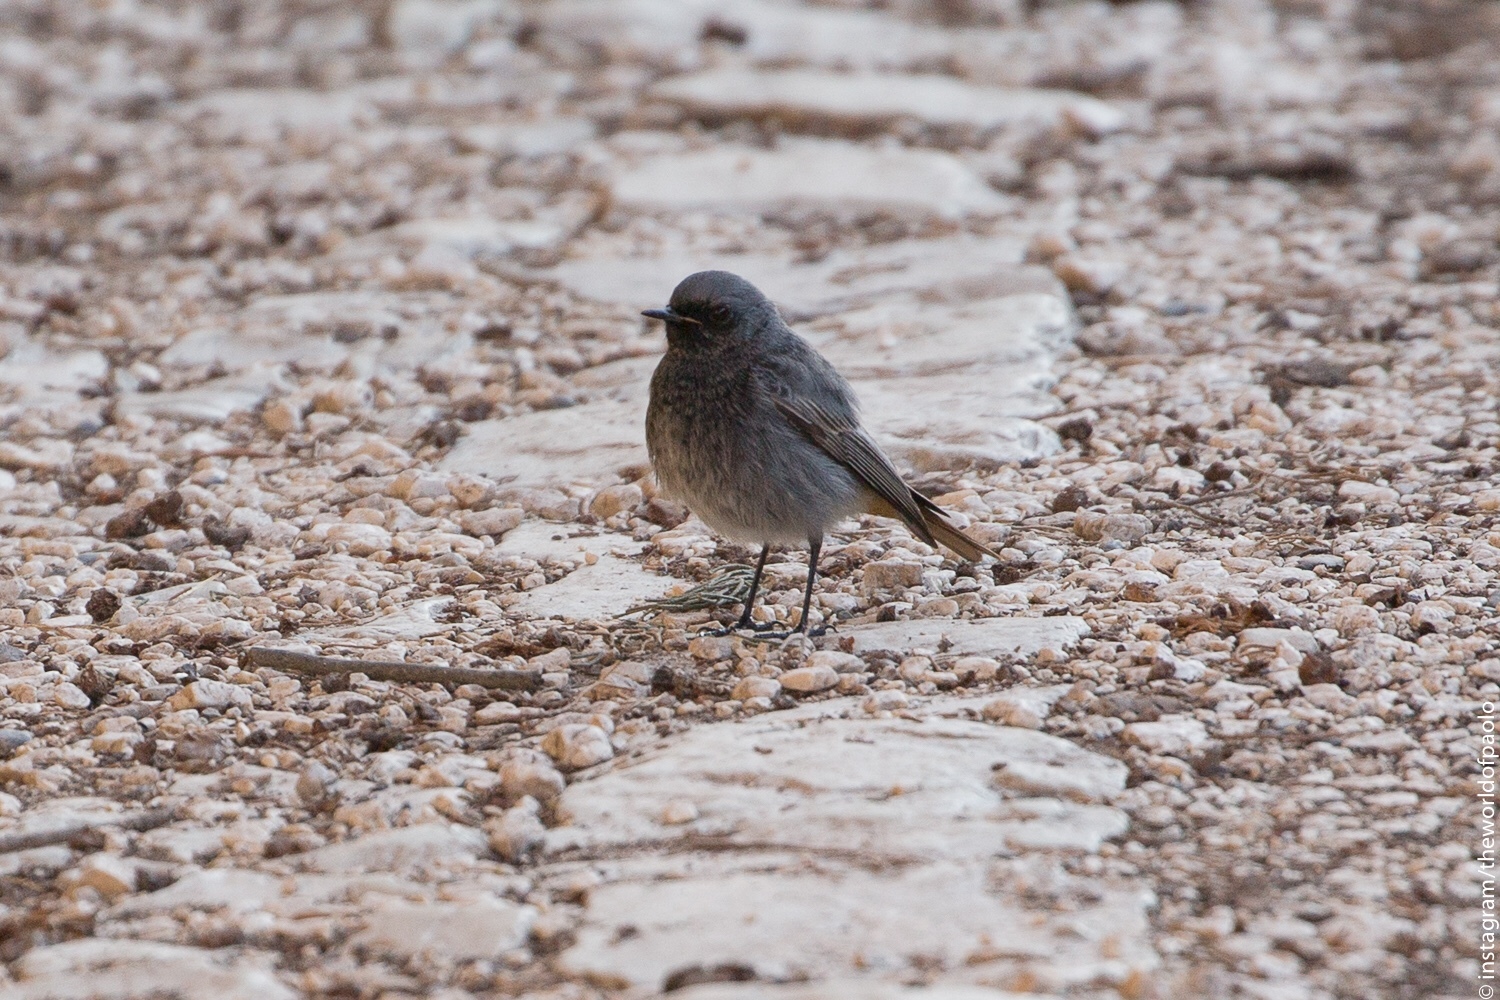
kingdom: Animalia
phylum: Chordata
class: Aves
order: Passeriformes
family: Muscicapidae
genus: Phoenicurus
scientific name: Phoenicurus ochruros
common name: Black redstart
